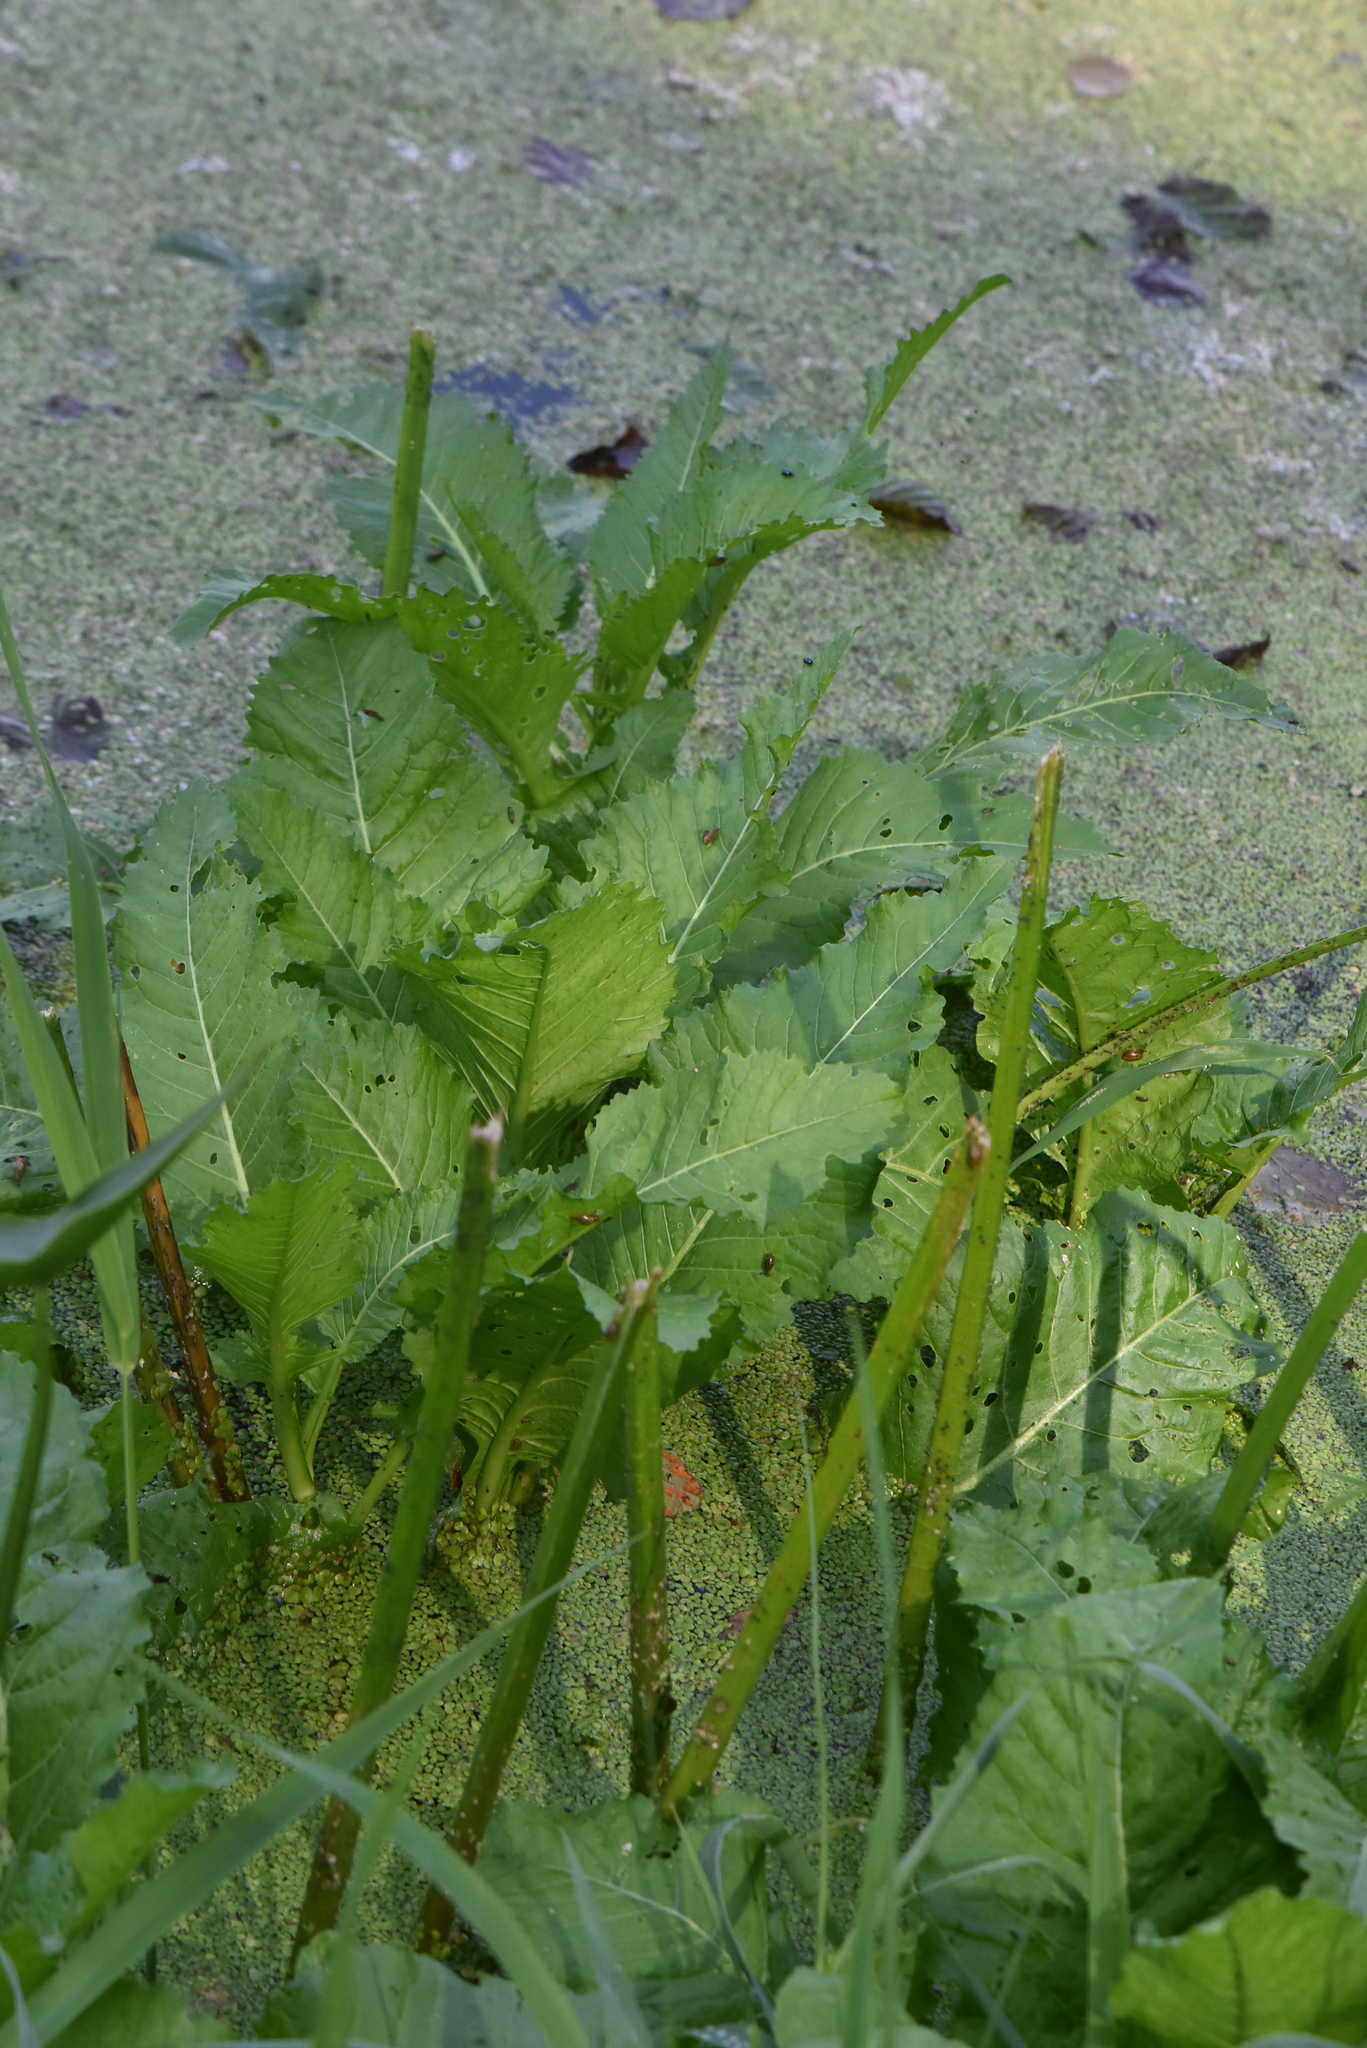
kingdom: Plantae
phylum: Tracheophyta
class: Magnoliopsida
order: Brassicales
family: Brassicaceae
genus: Rorippa
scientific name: Rorippa amphibia
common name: Great yellow-cress
